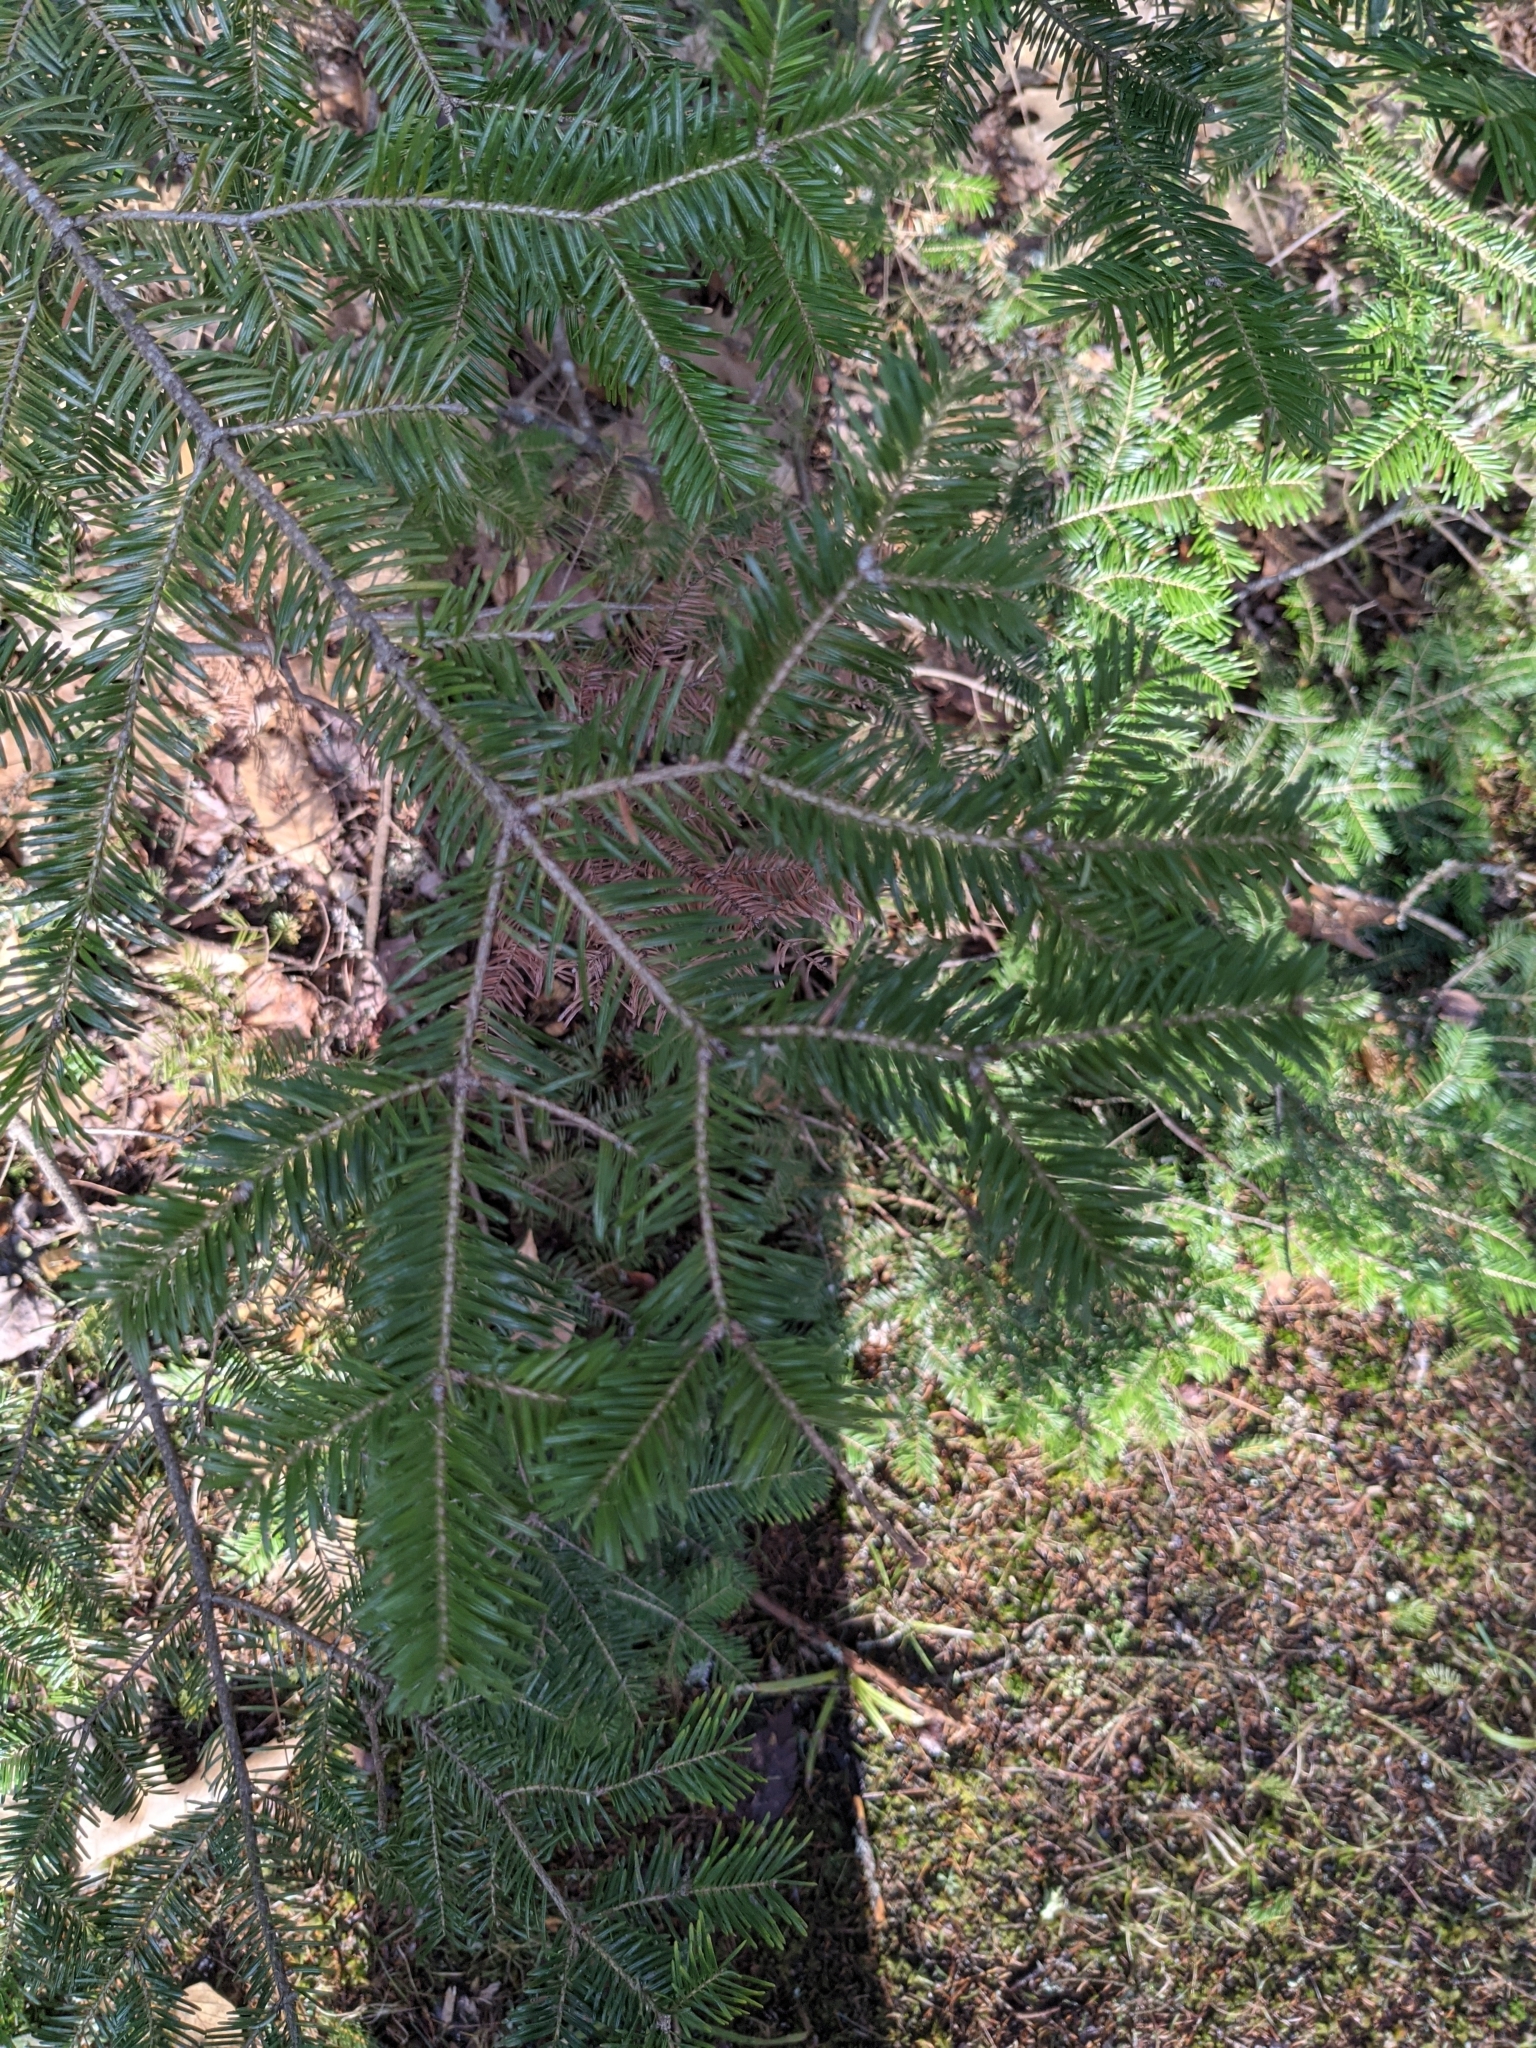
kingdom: Plantae
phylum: Tracheophyta
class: Pinopsida
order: Pinales
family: Pinaceae
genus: Abies
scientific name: Abies balsamea
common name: Balsam fir
